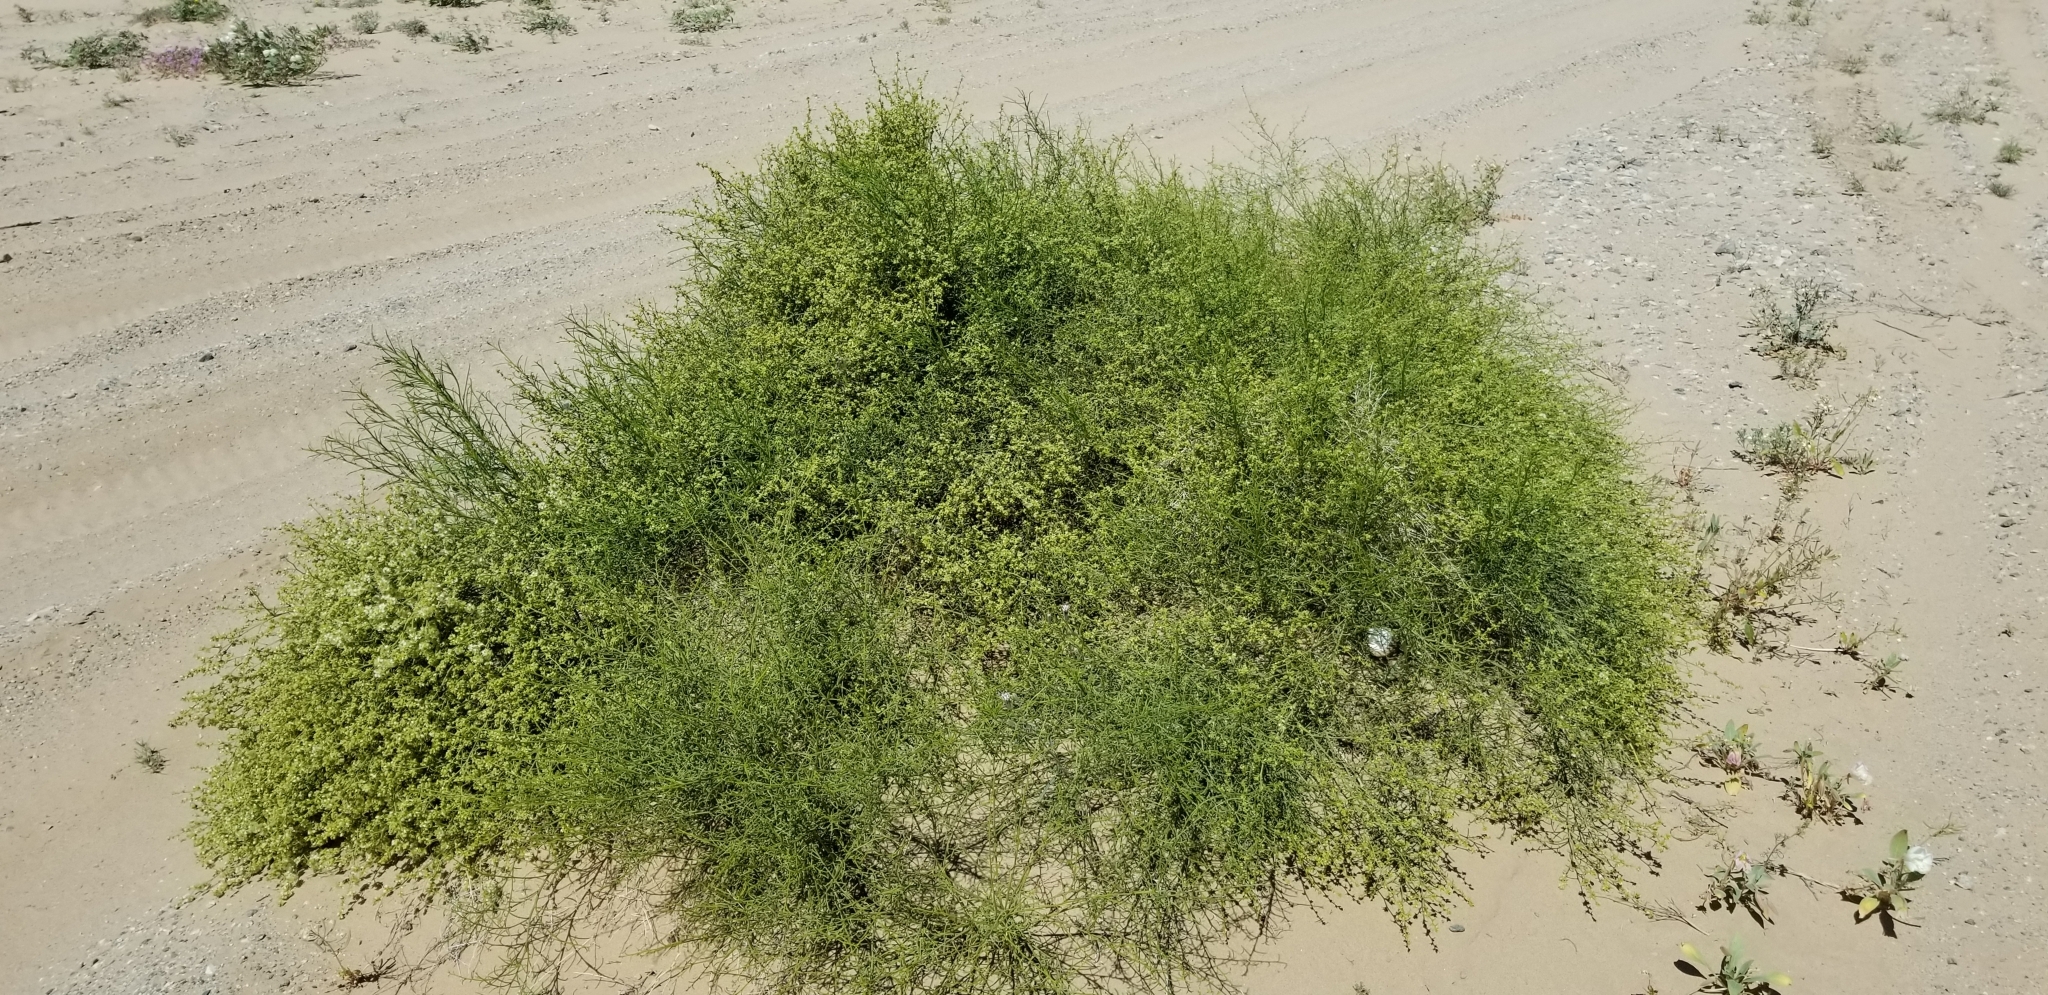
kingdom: Plantae
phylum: Tracheophyta
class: Magnoliopsida
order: Asterales
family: Asteraceae
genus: Ambrosia
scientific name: Ambrosia salsola
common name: Burrobrush
